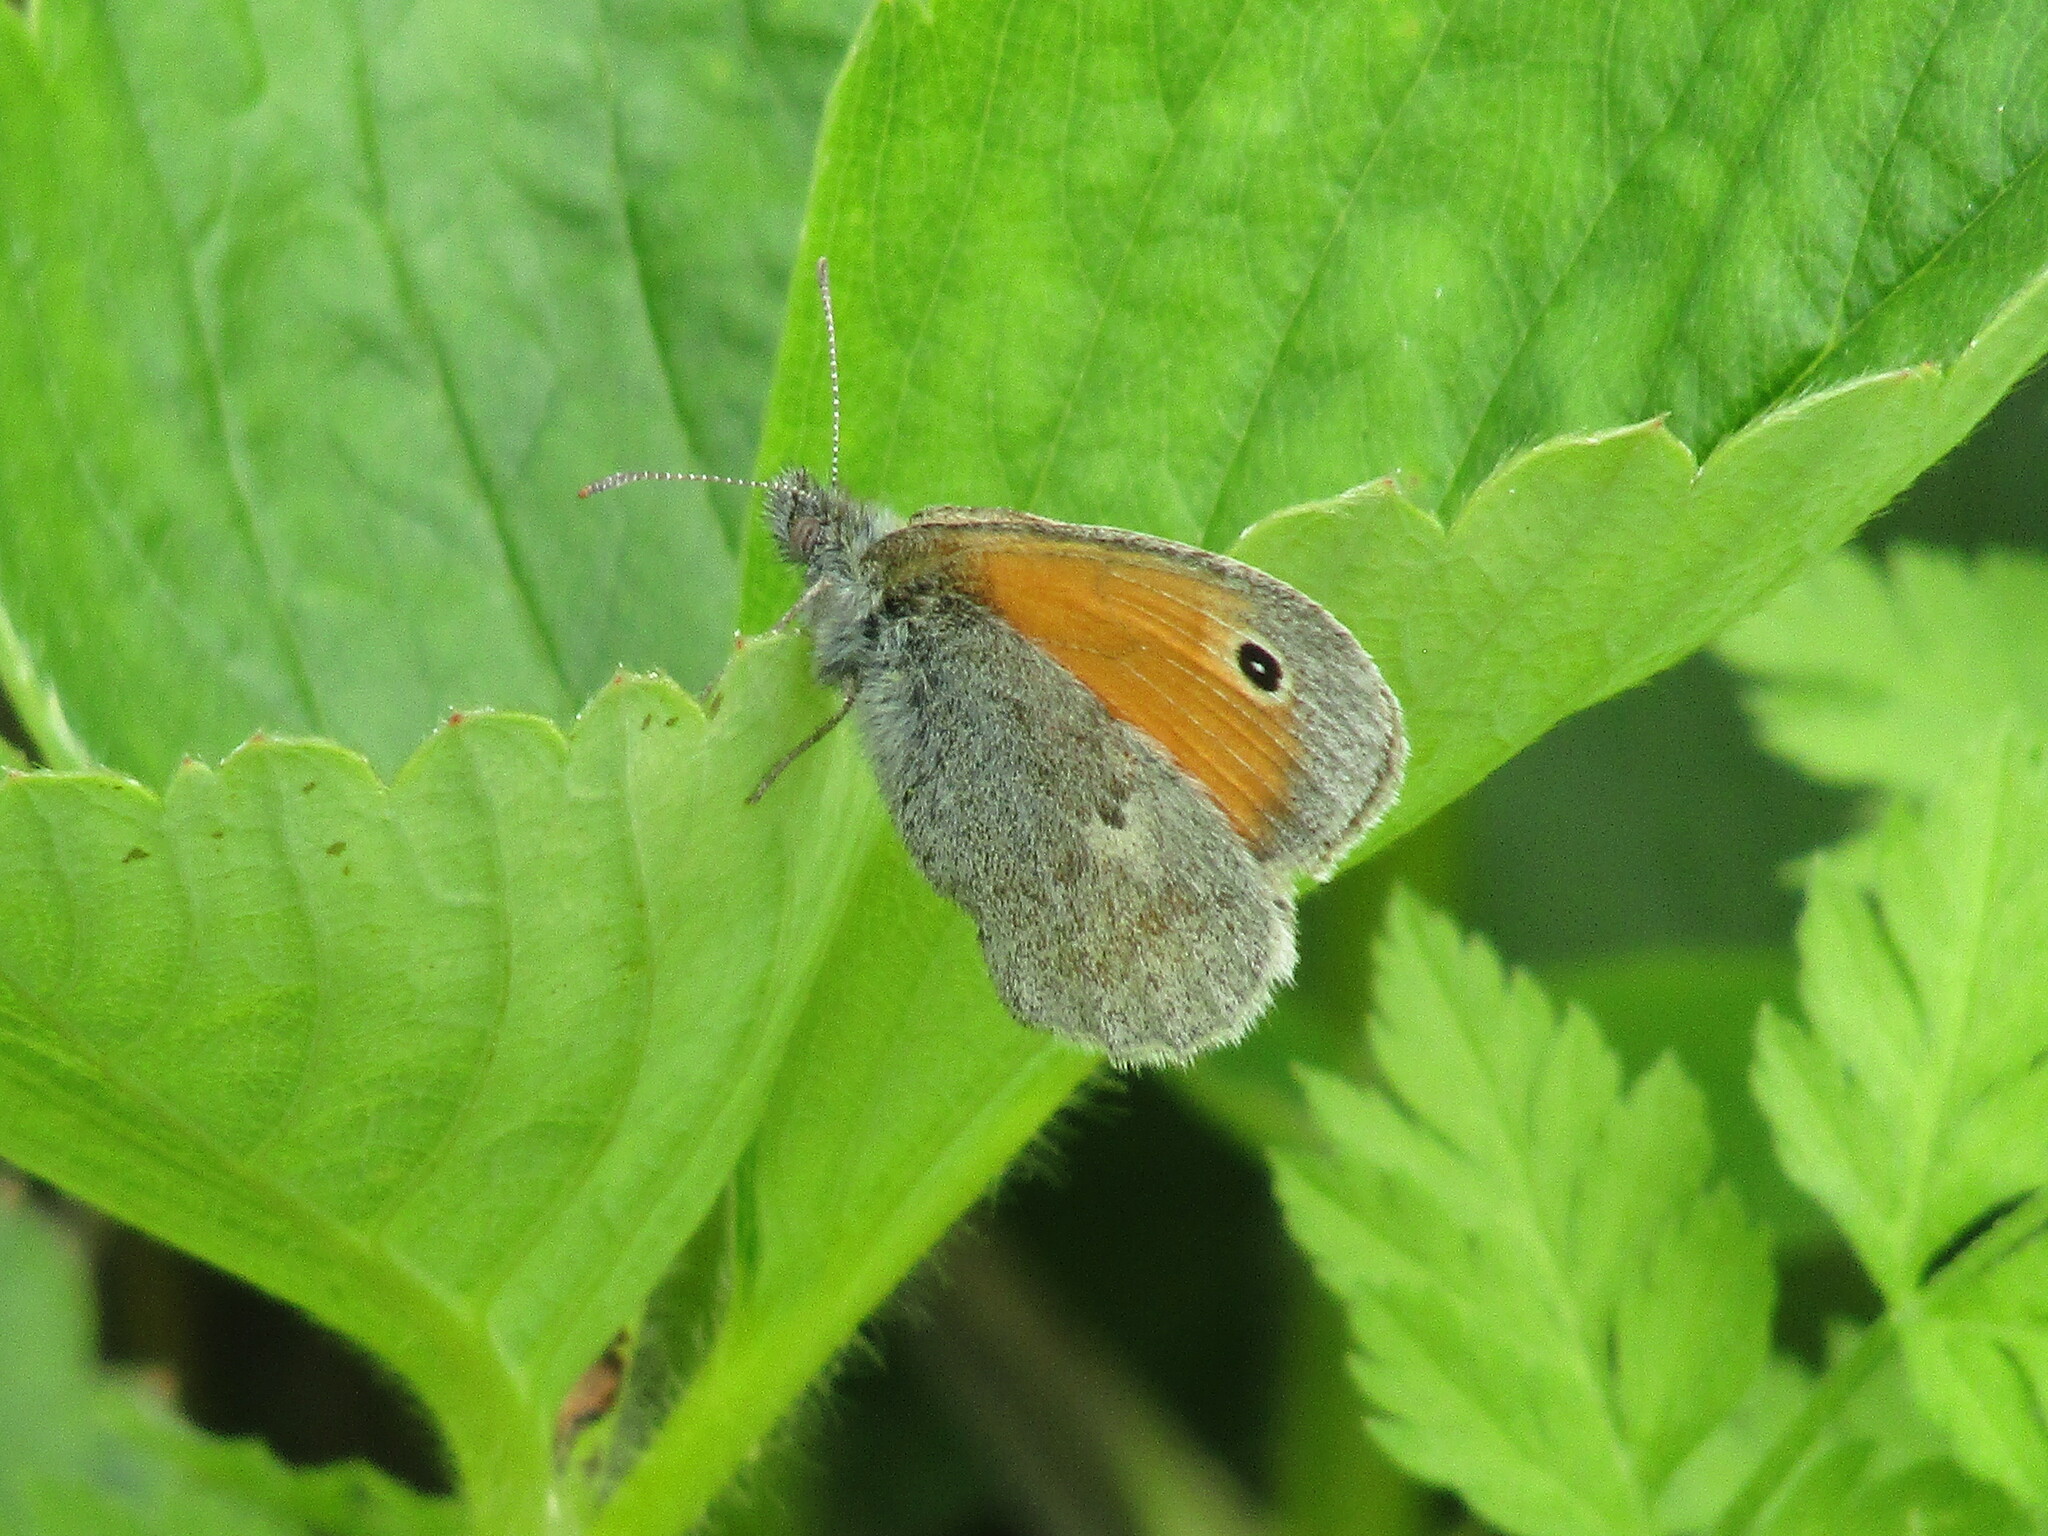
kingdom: Animalia
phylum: Arthropoda
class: Insecta
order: Lepidoptera
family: Nymphalidae
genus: Coenonympha
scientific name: Coenonympha pamphilus
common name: Small heath
